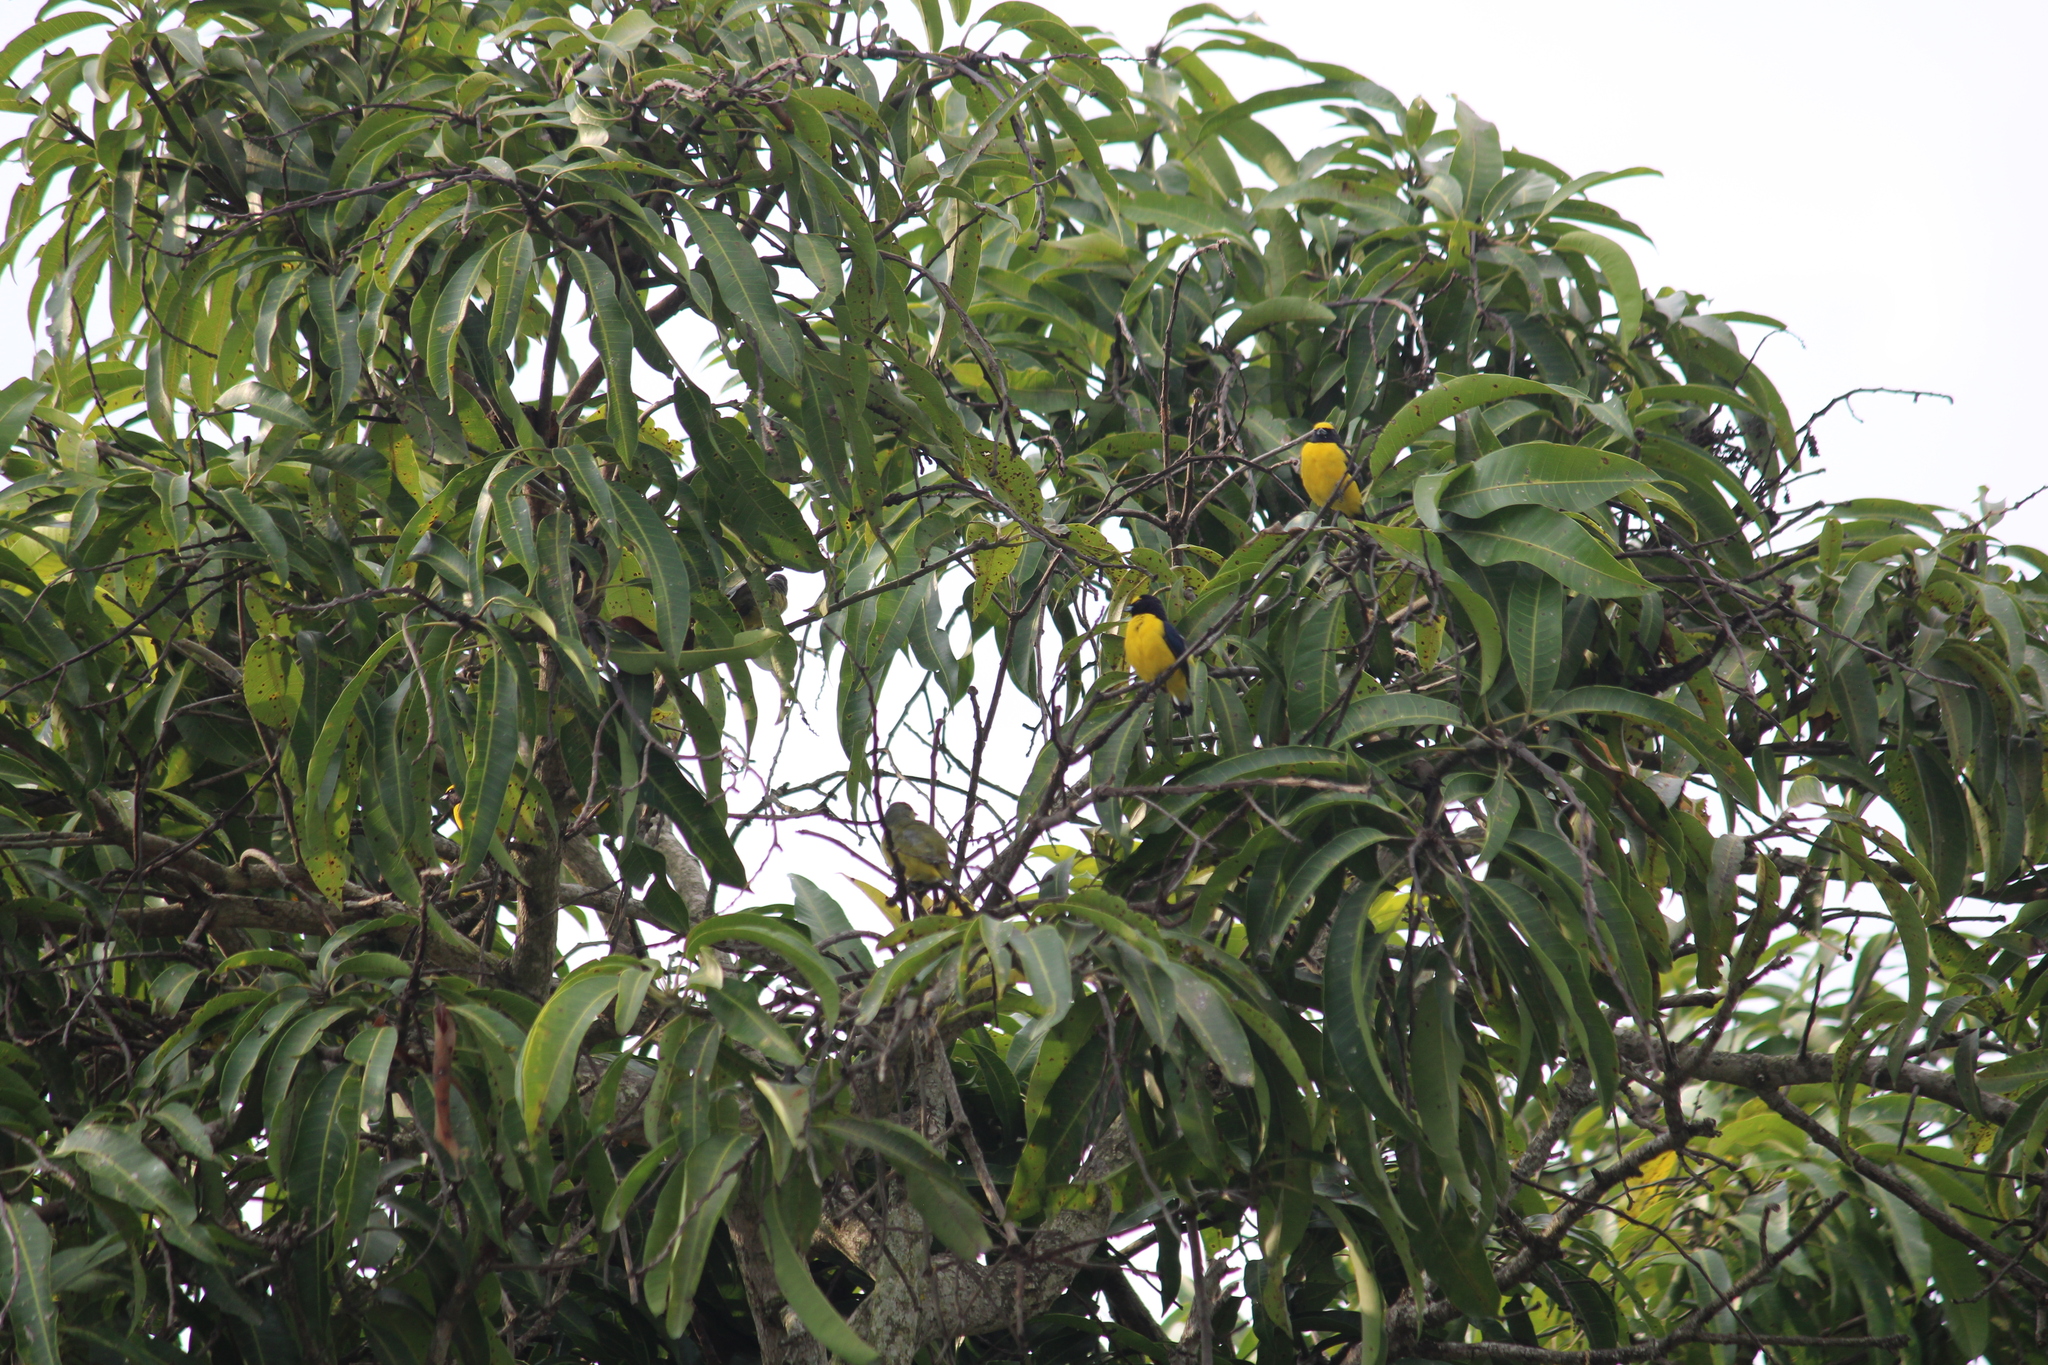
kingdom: Animalia
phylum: Chordata
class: Aves
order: Passeriformes
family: Fringillidae
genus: Euphonia
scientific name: Euphonia affinis
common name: Scrub euphonia
